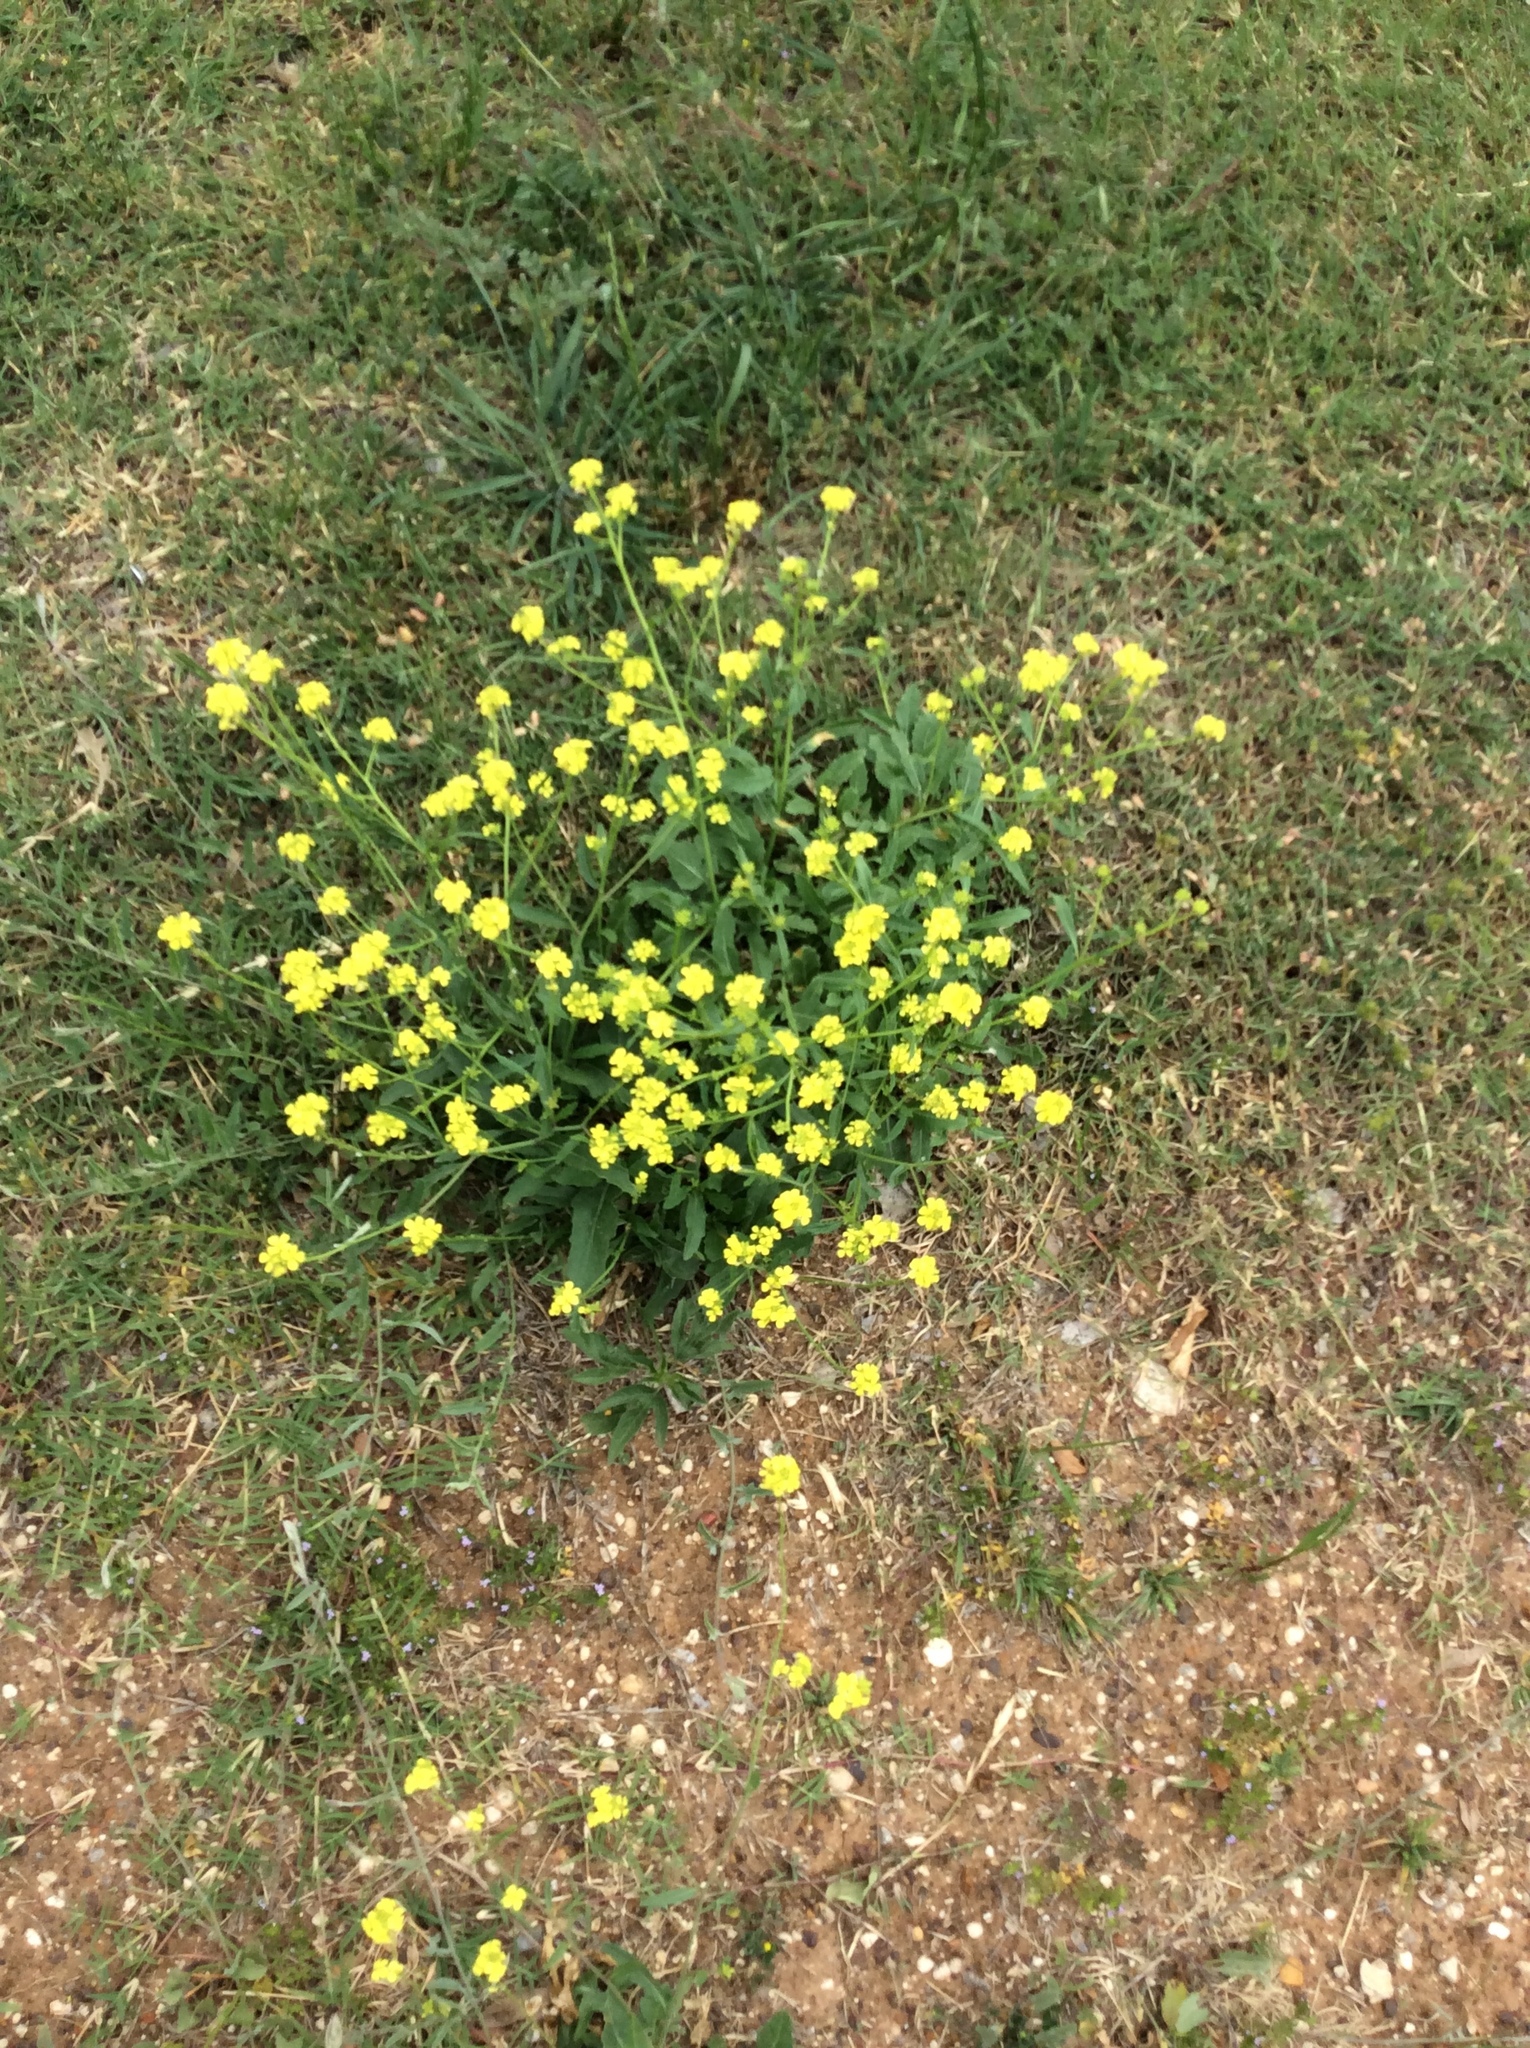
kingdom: Plantae
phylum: Tracheophyta
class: Magnoliopsida
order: Brassicales
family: Brassicaceae
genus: Rapistrum
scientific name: Rapistrum rugosum
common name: Annual bastardcabbage
